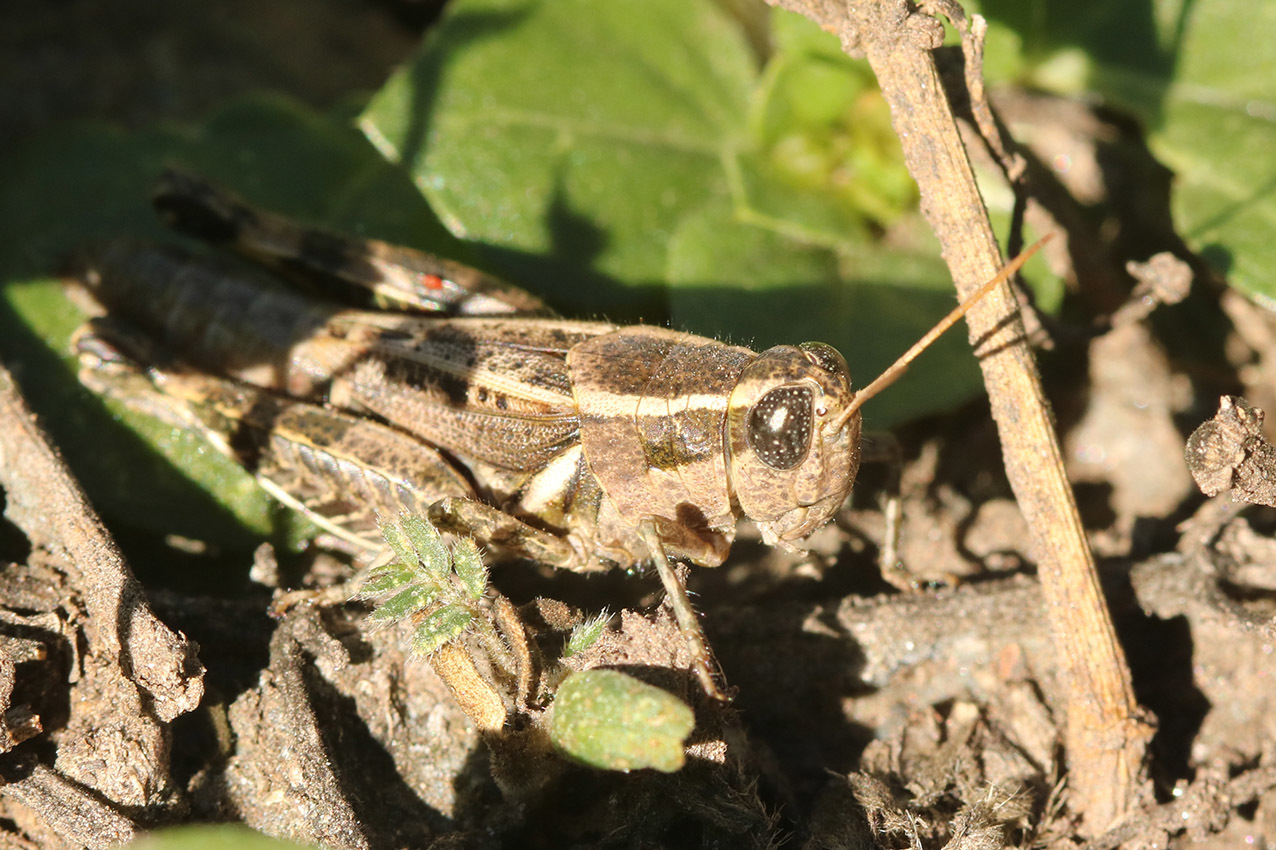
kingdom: Animalia
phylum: Arthropoda
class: Insecta
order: Orthoptera
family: Acrididae
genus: Dichroplus
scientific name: Dichroplus vittatus
